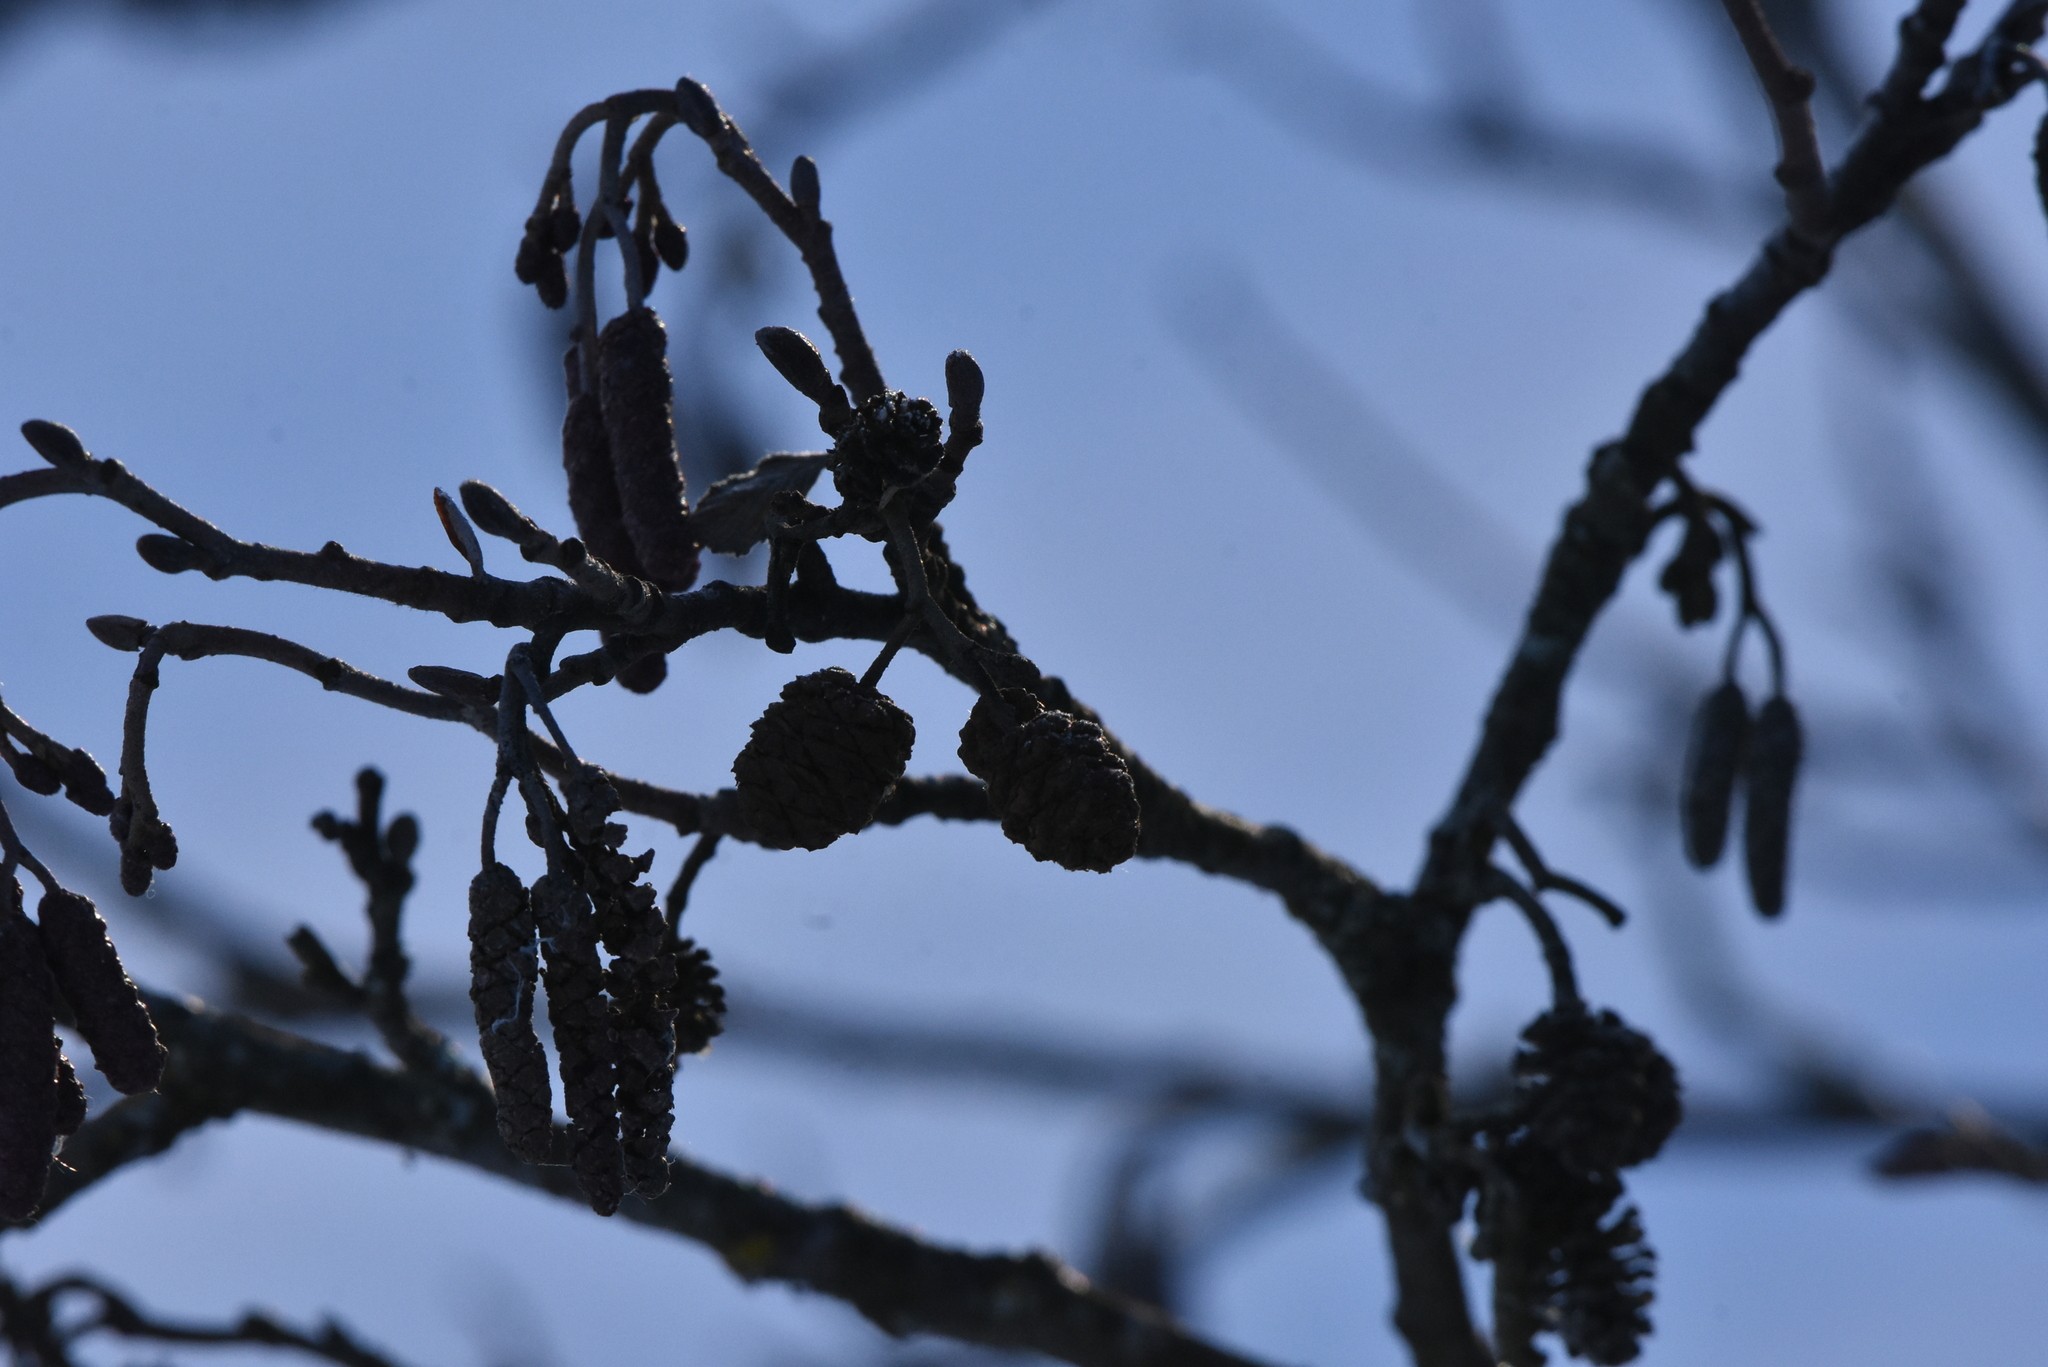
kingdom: Plantae
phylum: Tracheophyta
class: Magnoliopsida
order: Fagales
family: Betulaceae
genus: Alnus
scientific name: Alnus glutinosa
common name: Black alder
